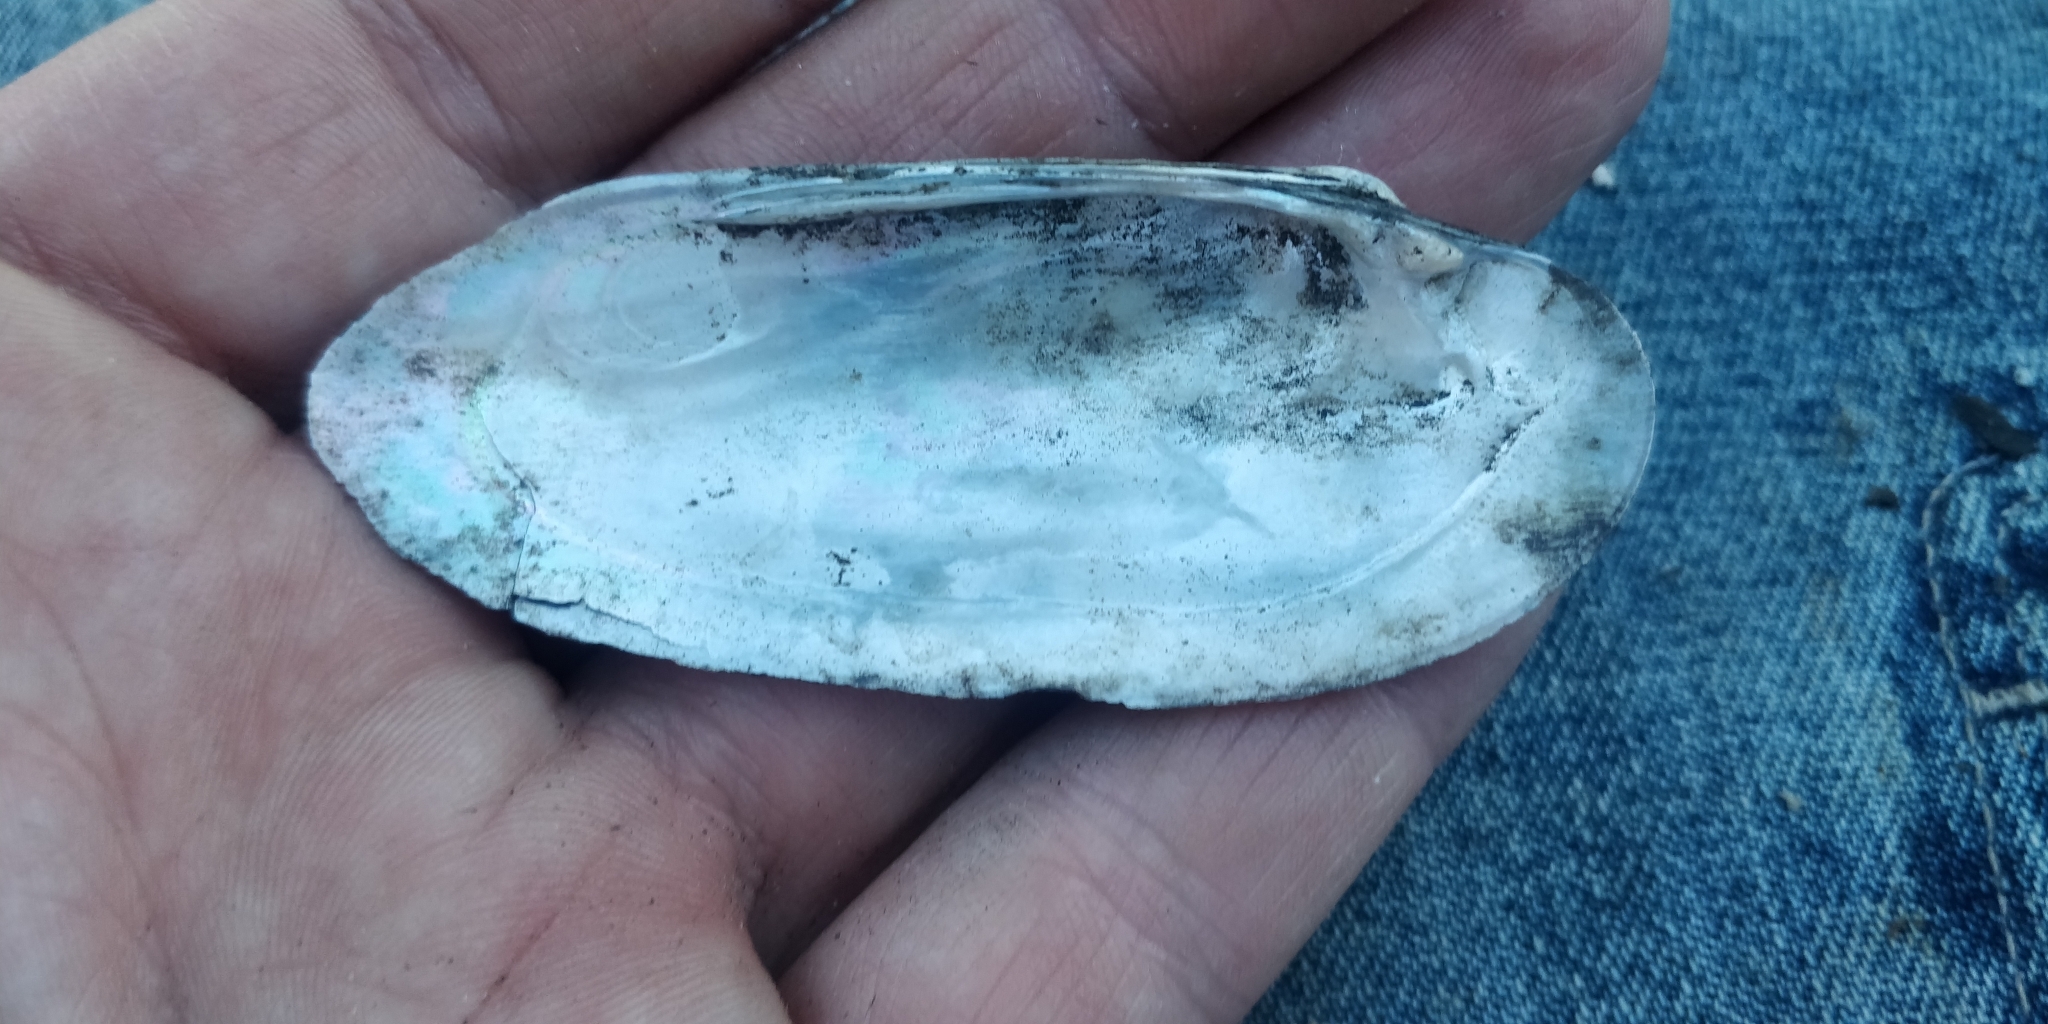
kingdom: Animalia
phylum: Mollusca
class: Bivalvia
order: Unionida
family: Unionidae
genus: Ligumia
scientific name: Ligumia recta
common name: Black sandshell
